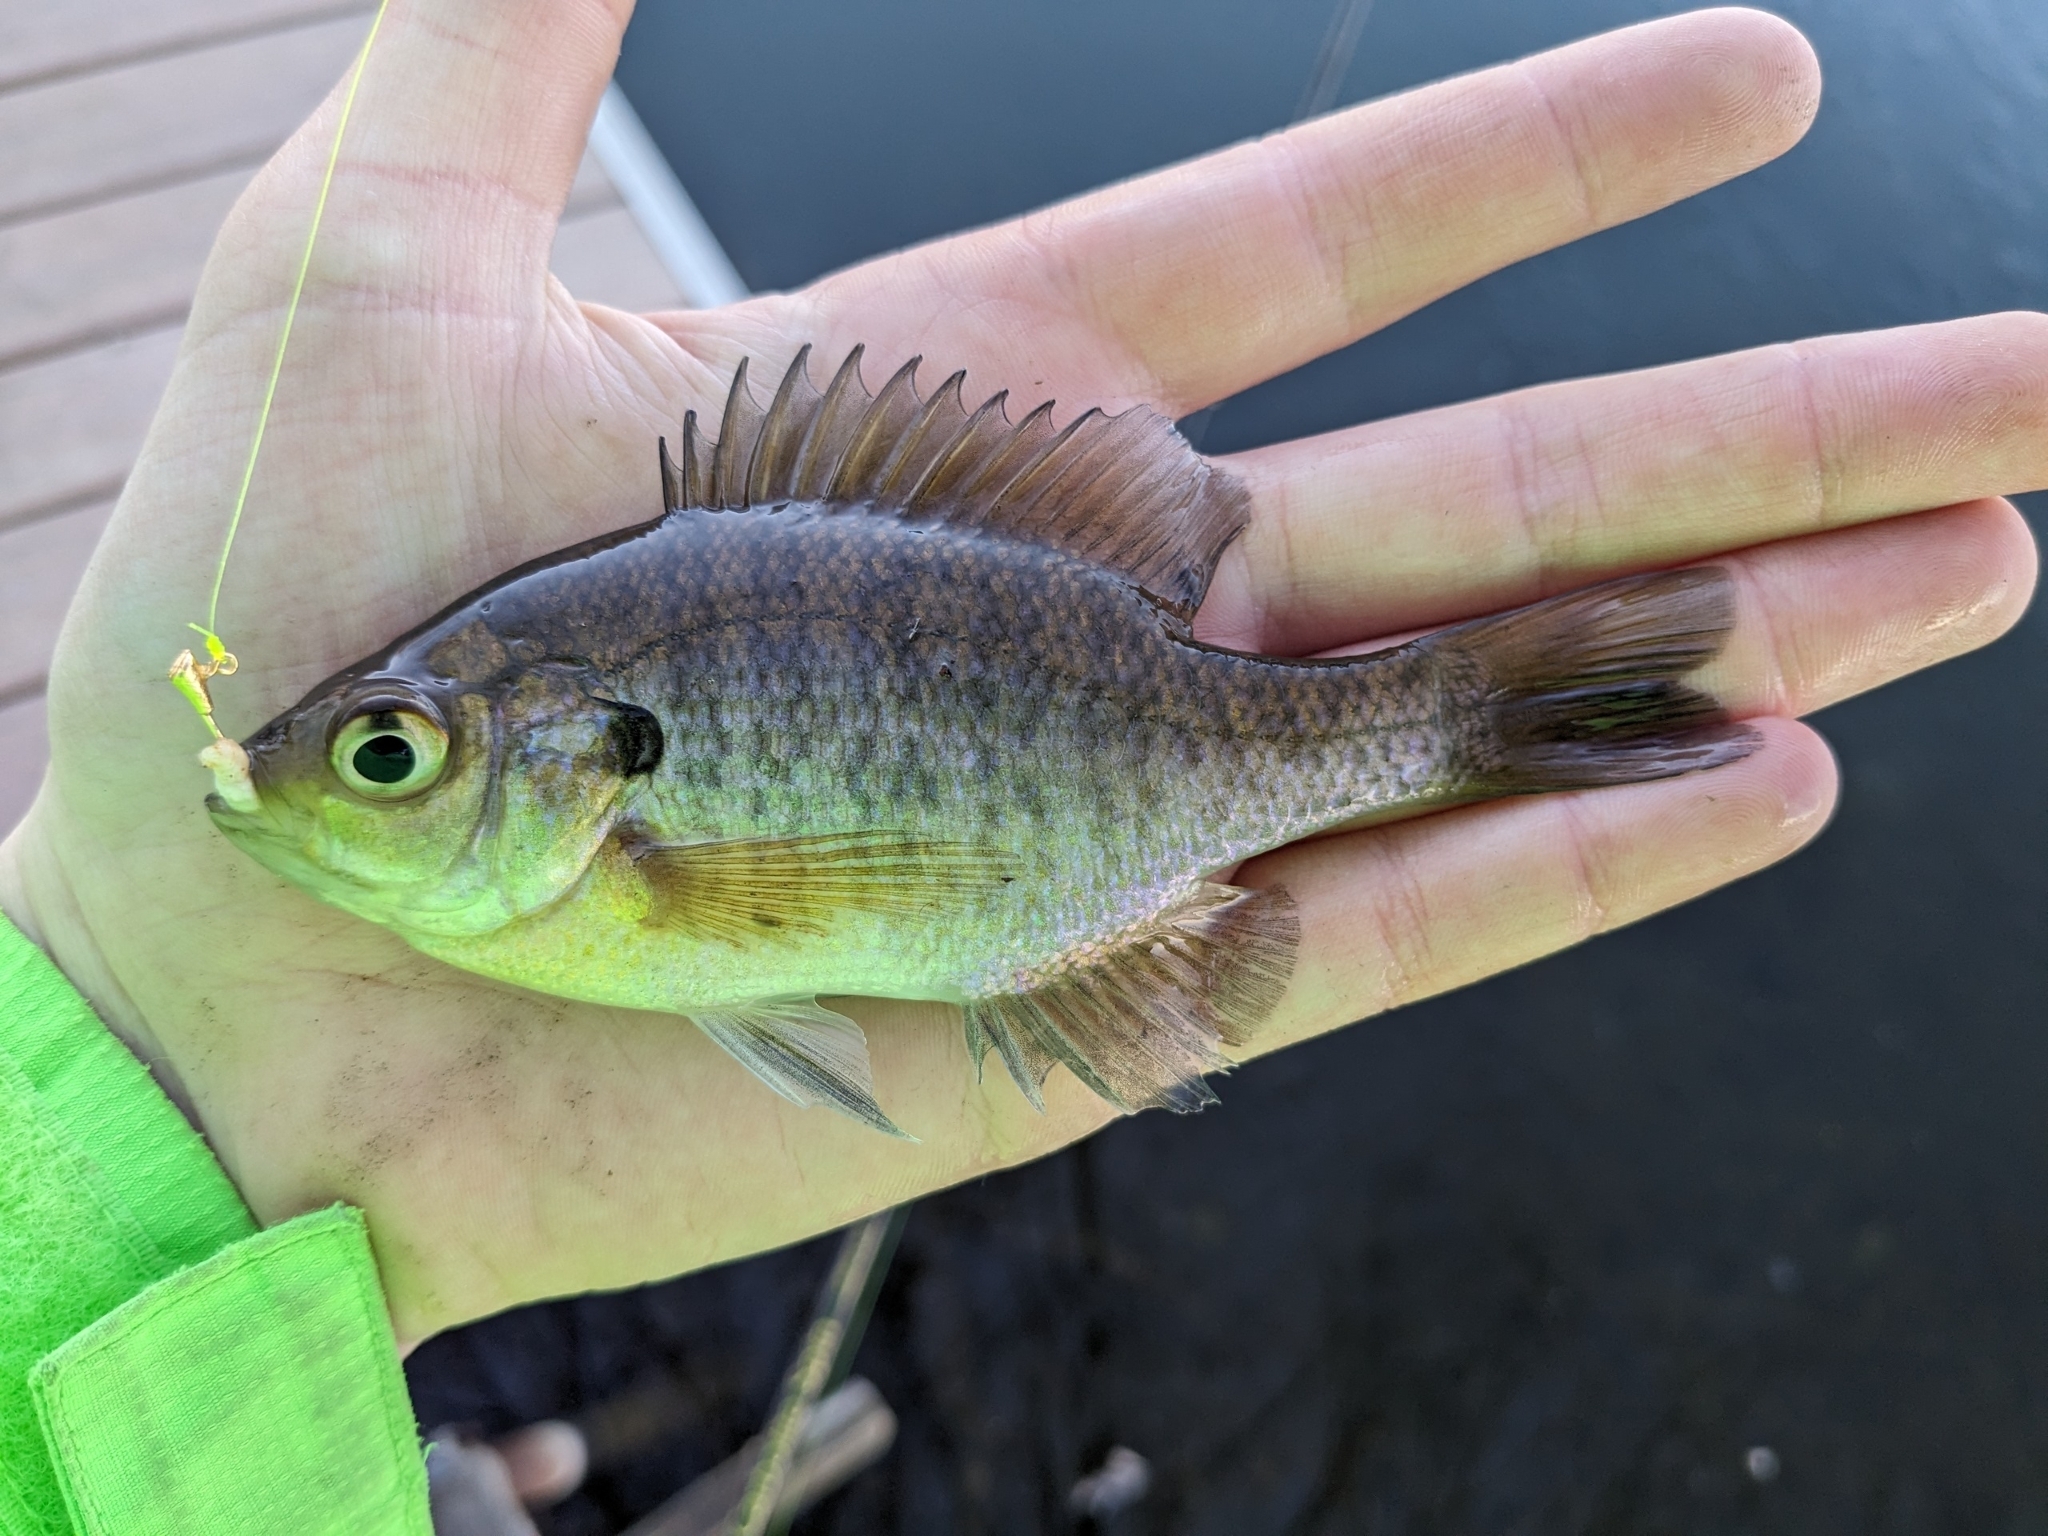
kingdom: Animalia
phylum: Chordata
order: Perciformes
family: Centrarchidae
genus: Lepomis
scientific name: Lepomis macrochirus
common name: Bluegill
